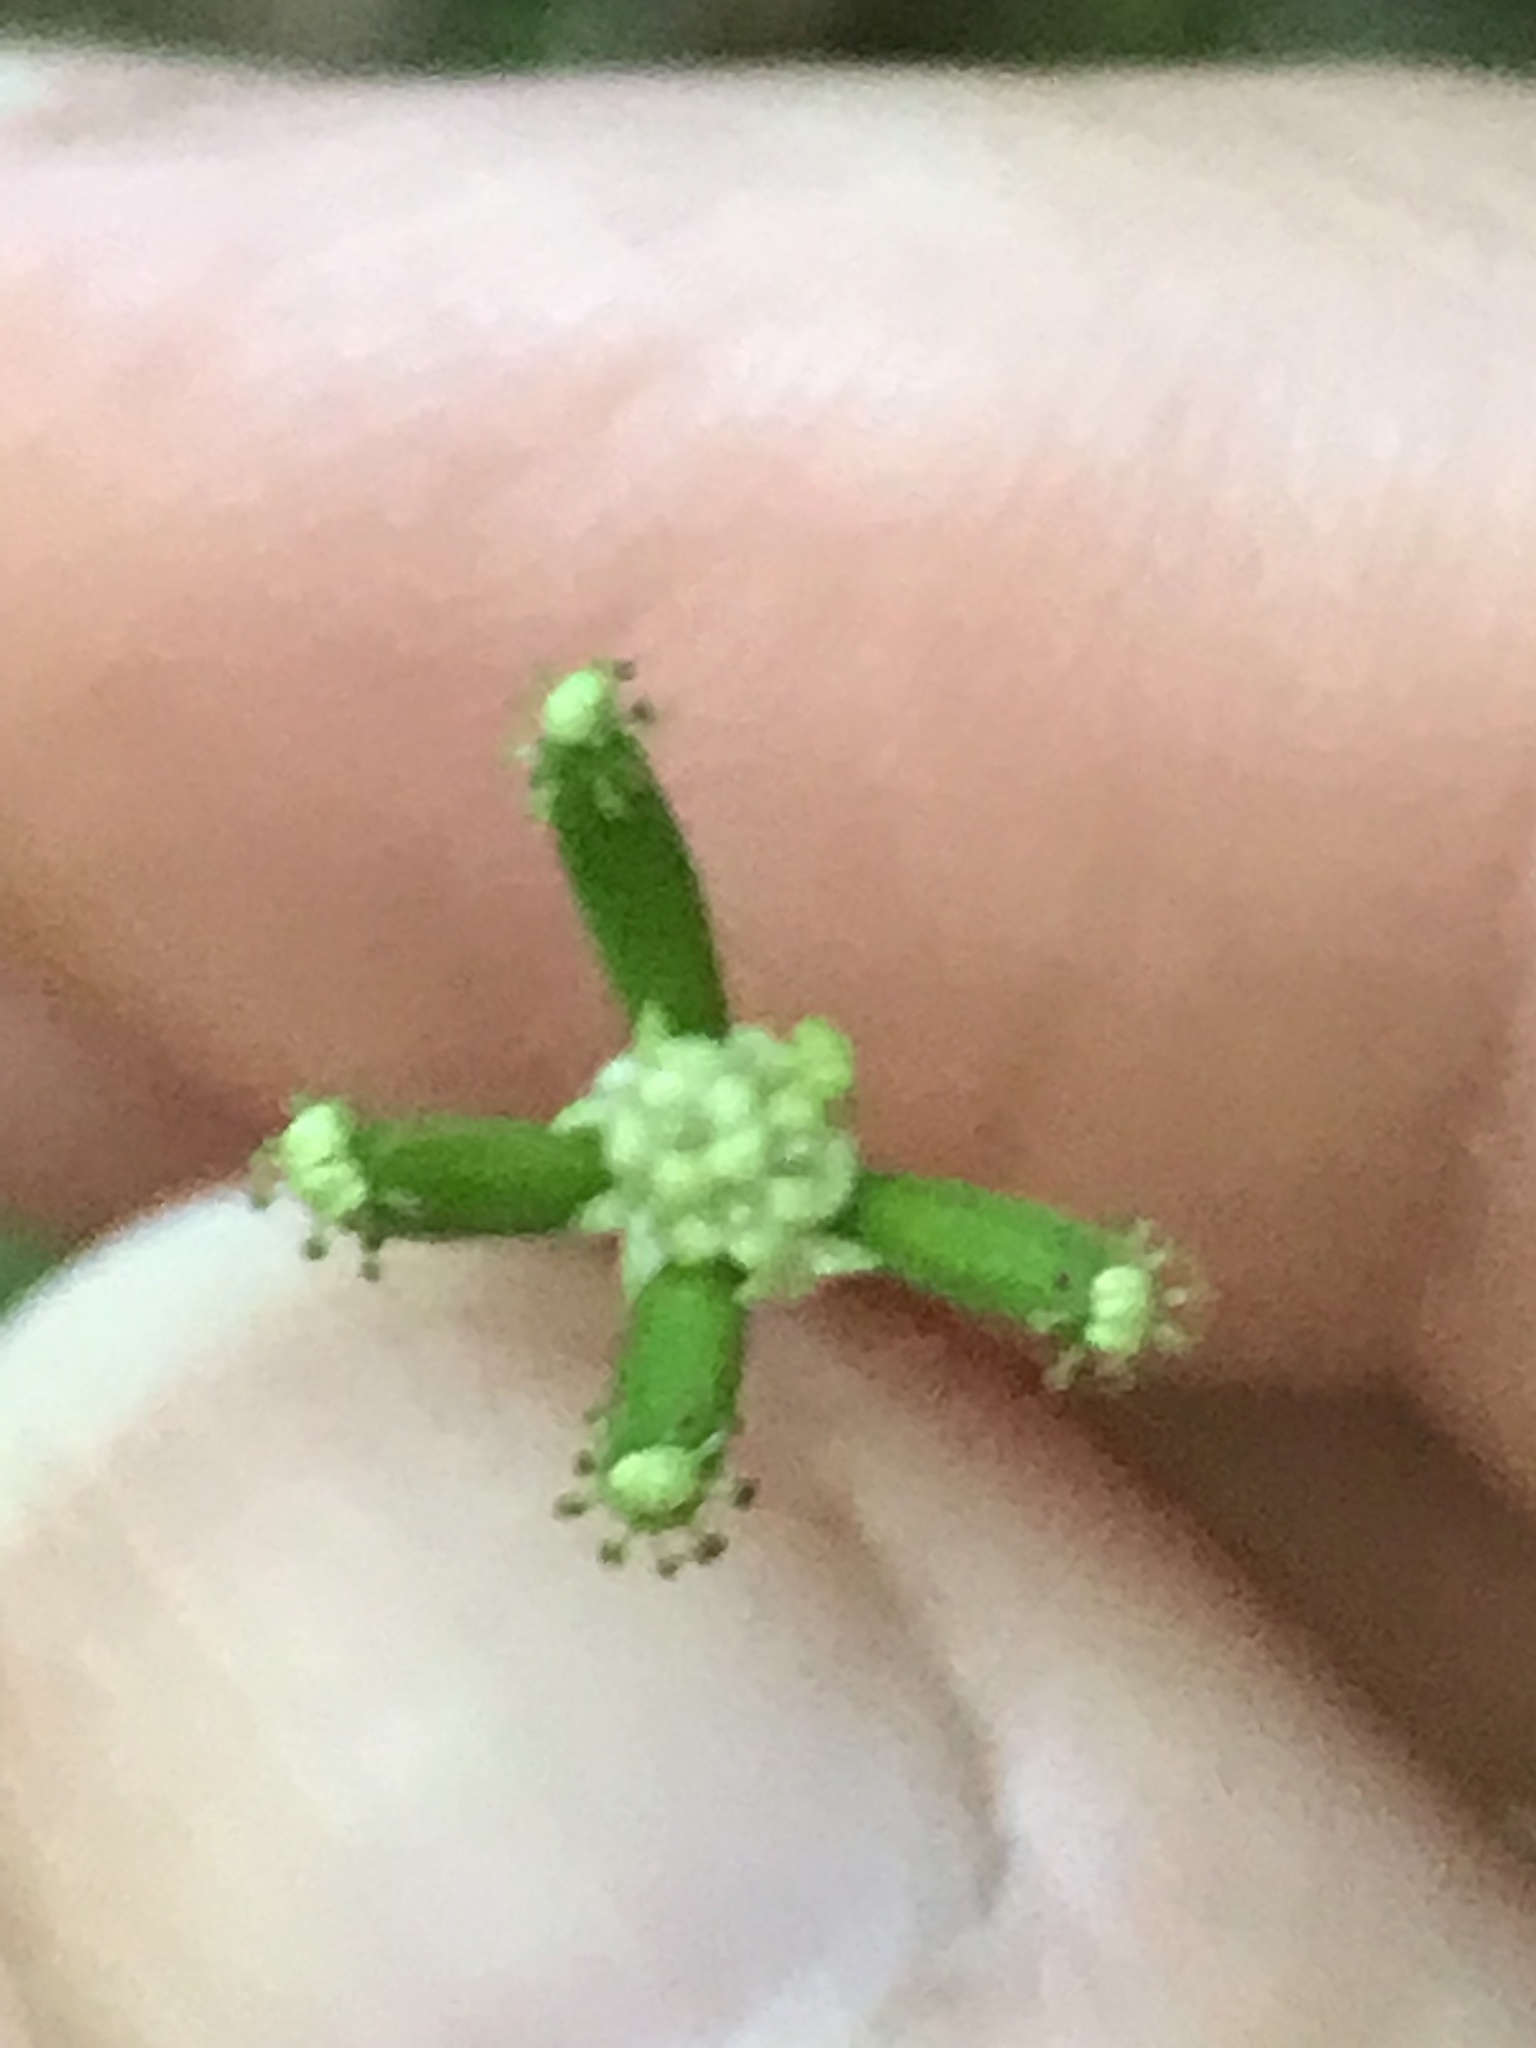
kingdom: Plantae
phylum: Tracheophyta
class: Magnoliopsida
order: Asterales
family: Asteraceae
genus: Adenocaulon
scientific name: Adenocaulon bicolor
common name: Trailplant
